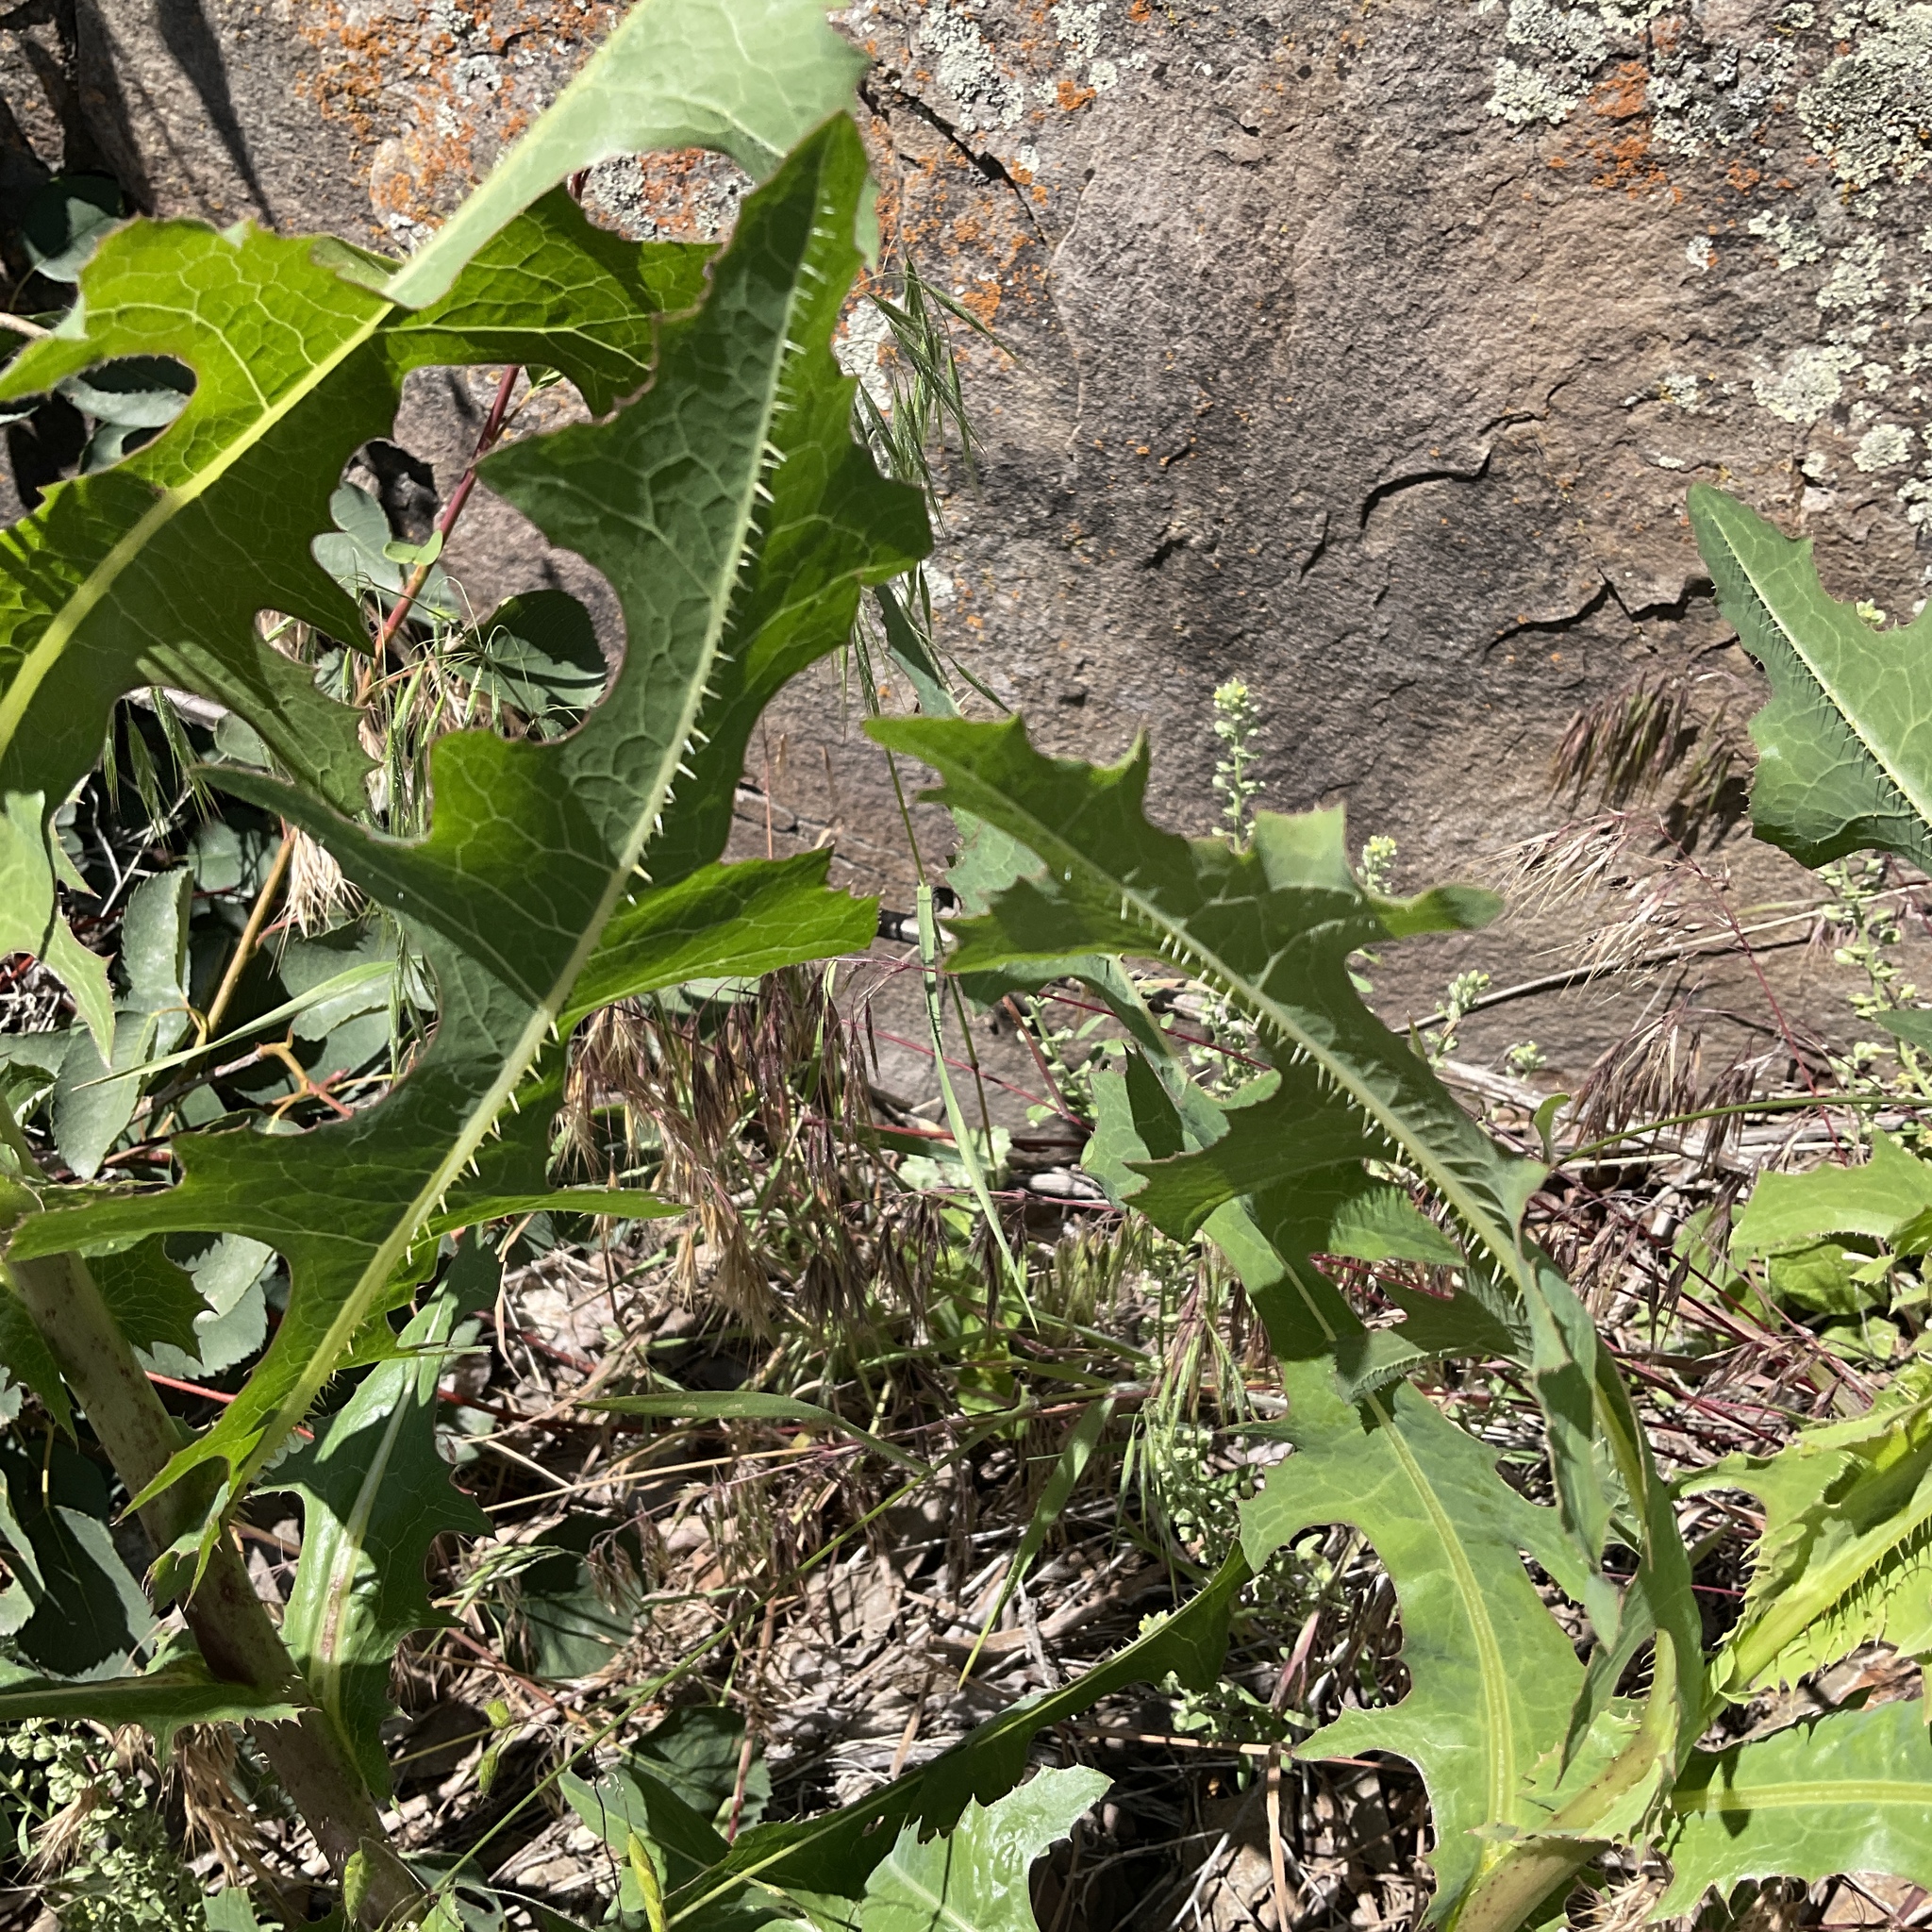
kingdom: Plantae
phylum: Tracheophyta
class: Magnoliopsida
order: Asterales
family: Asteraceae
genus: Lactuca
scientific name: Lactuca serriola
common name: Prickly lettuce
